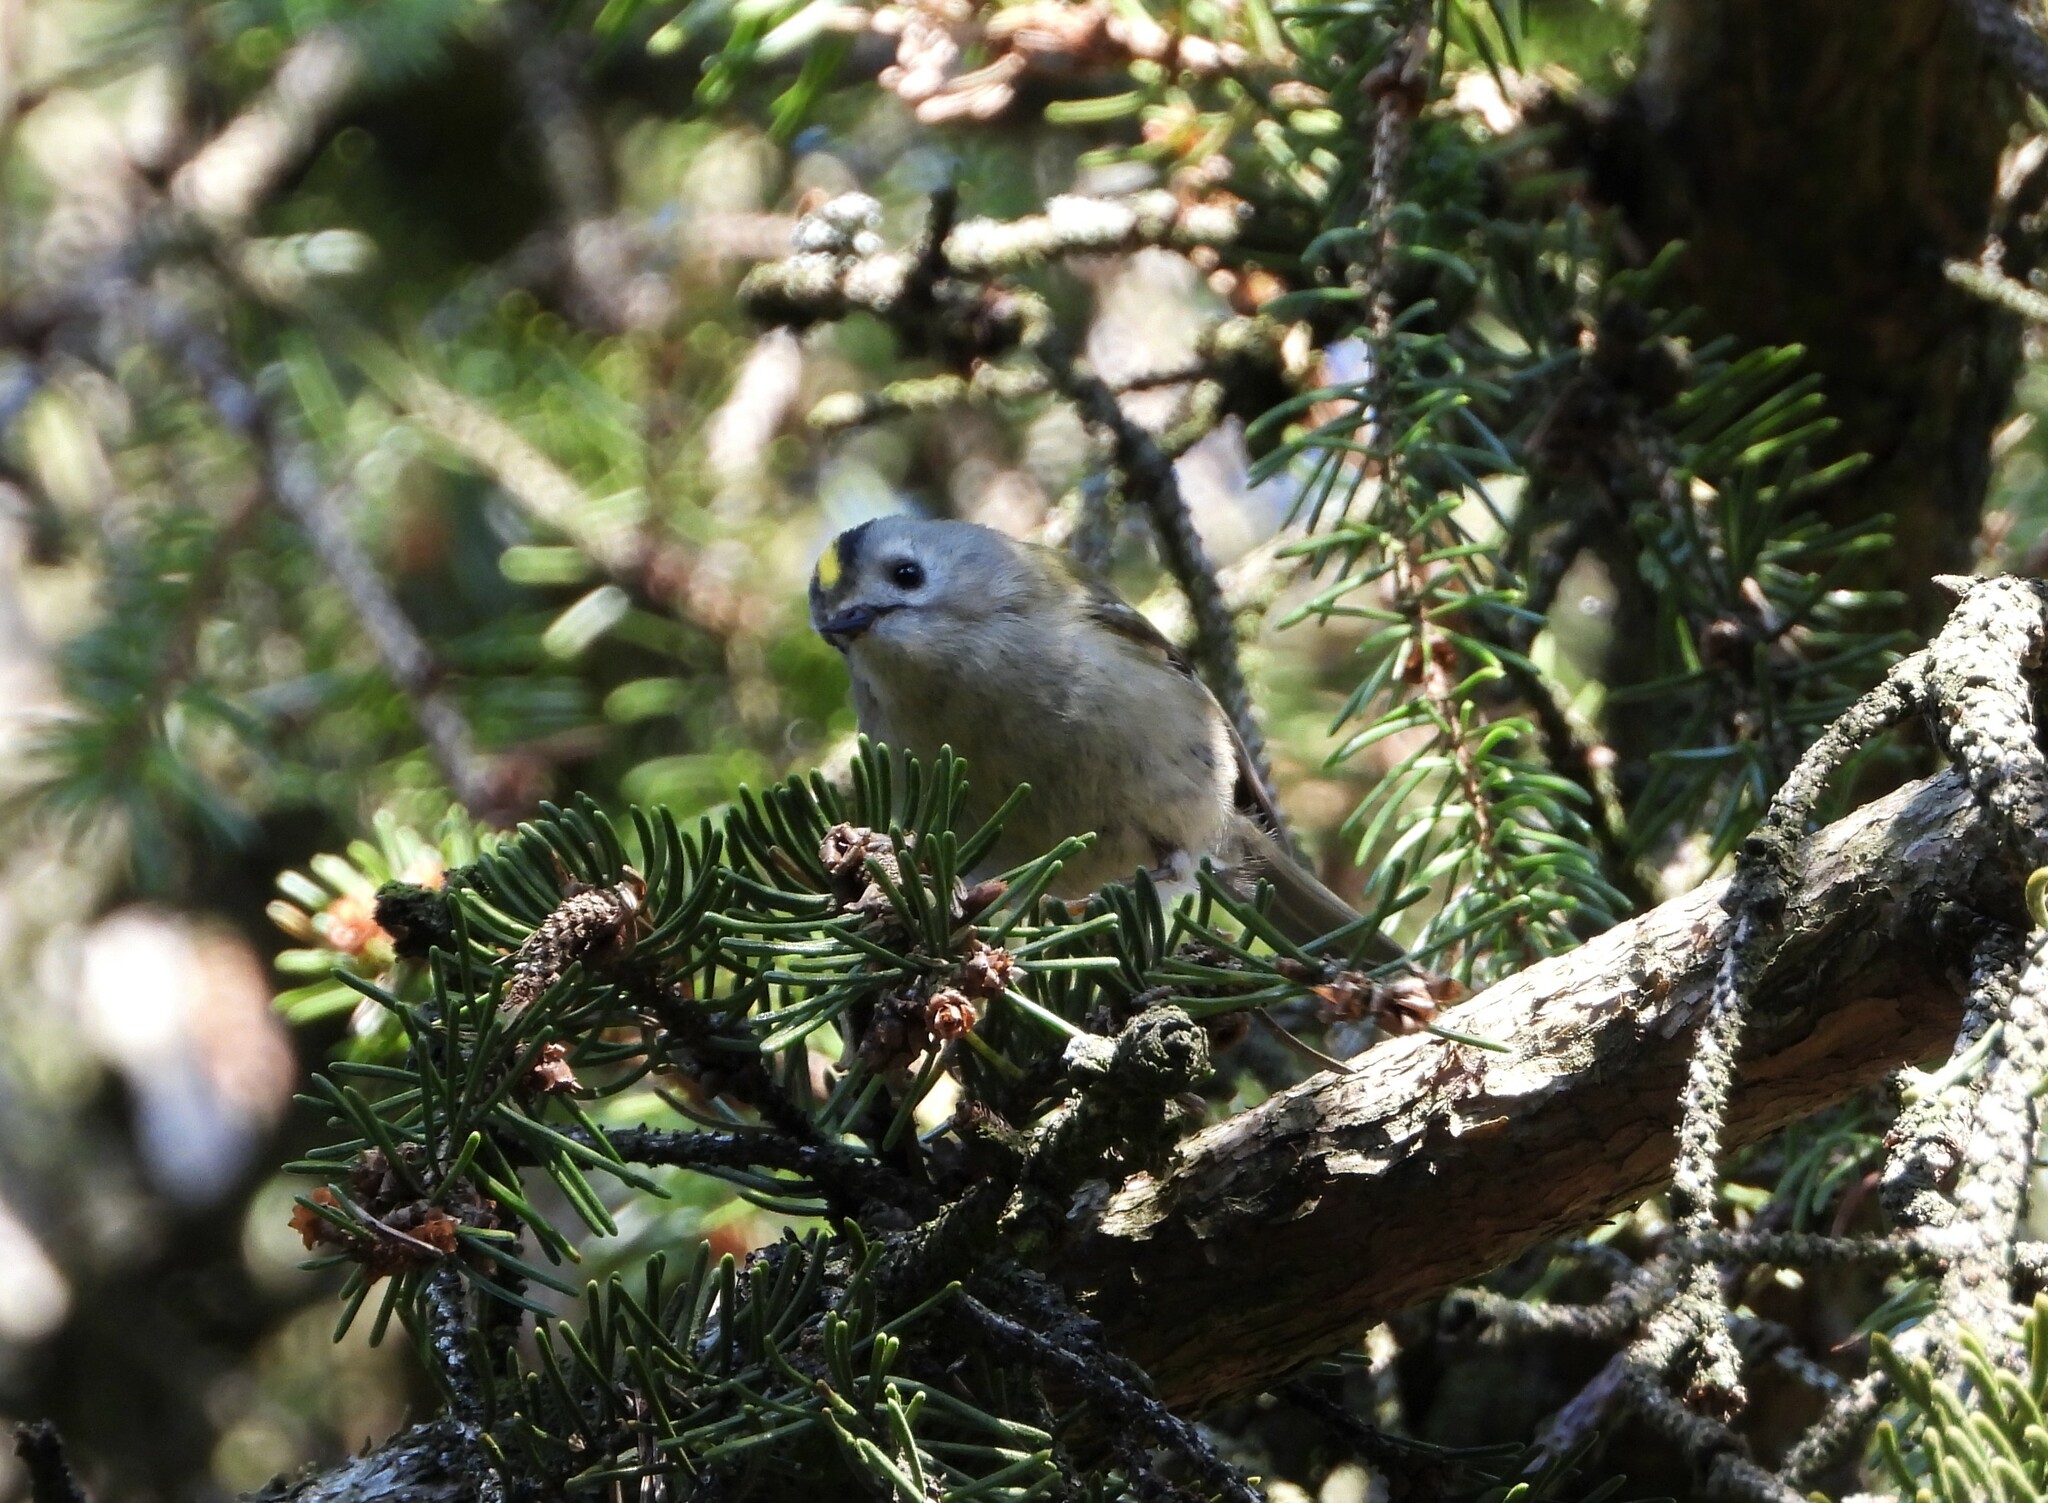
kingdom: Animalia
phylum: Chordata
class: Aves
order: Passeriformes
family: Regulidae
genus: Regulus
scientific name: Regulus regulus
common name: Goldcrest
